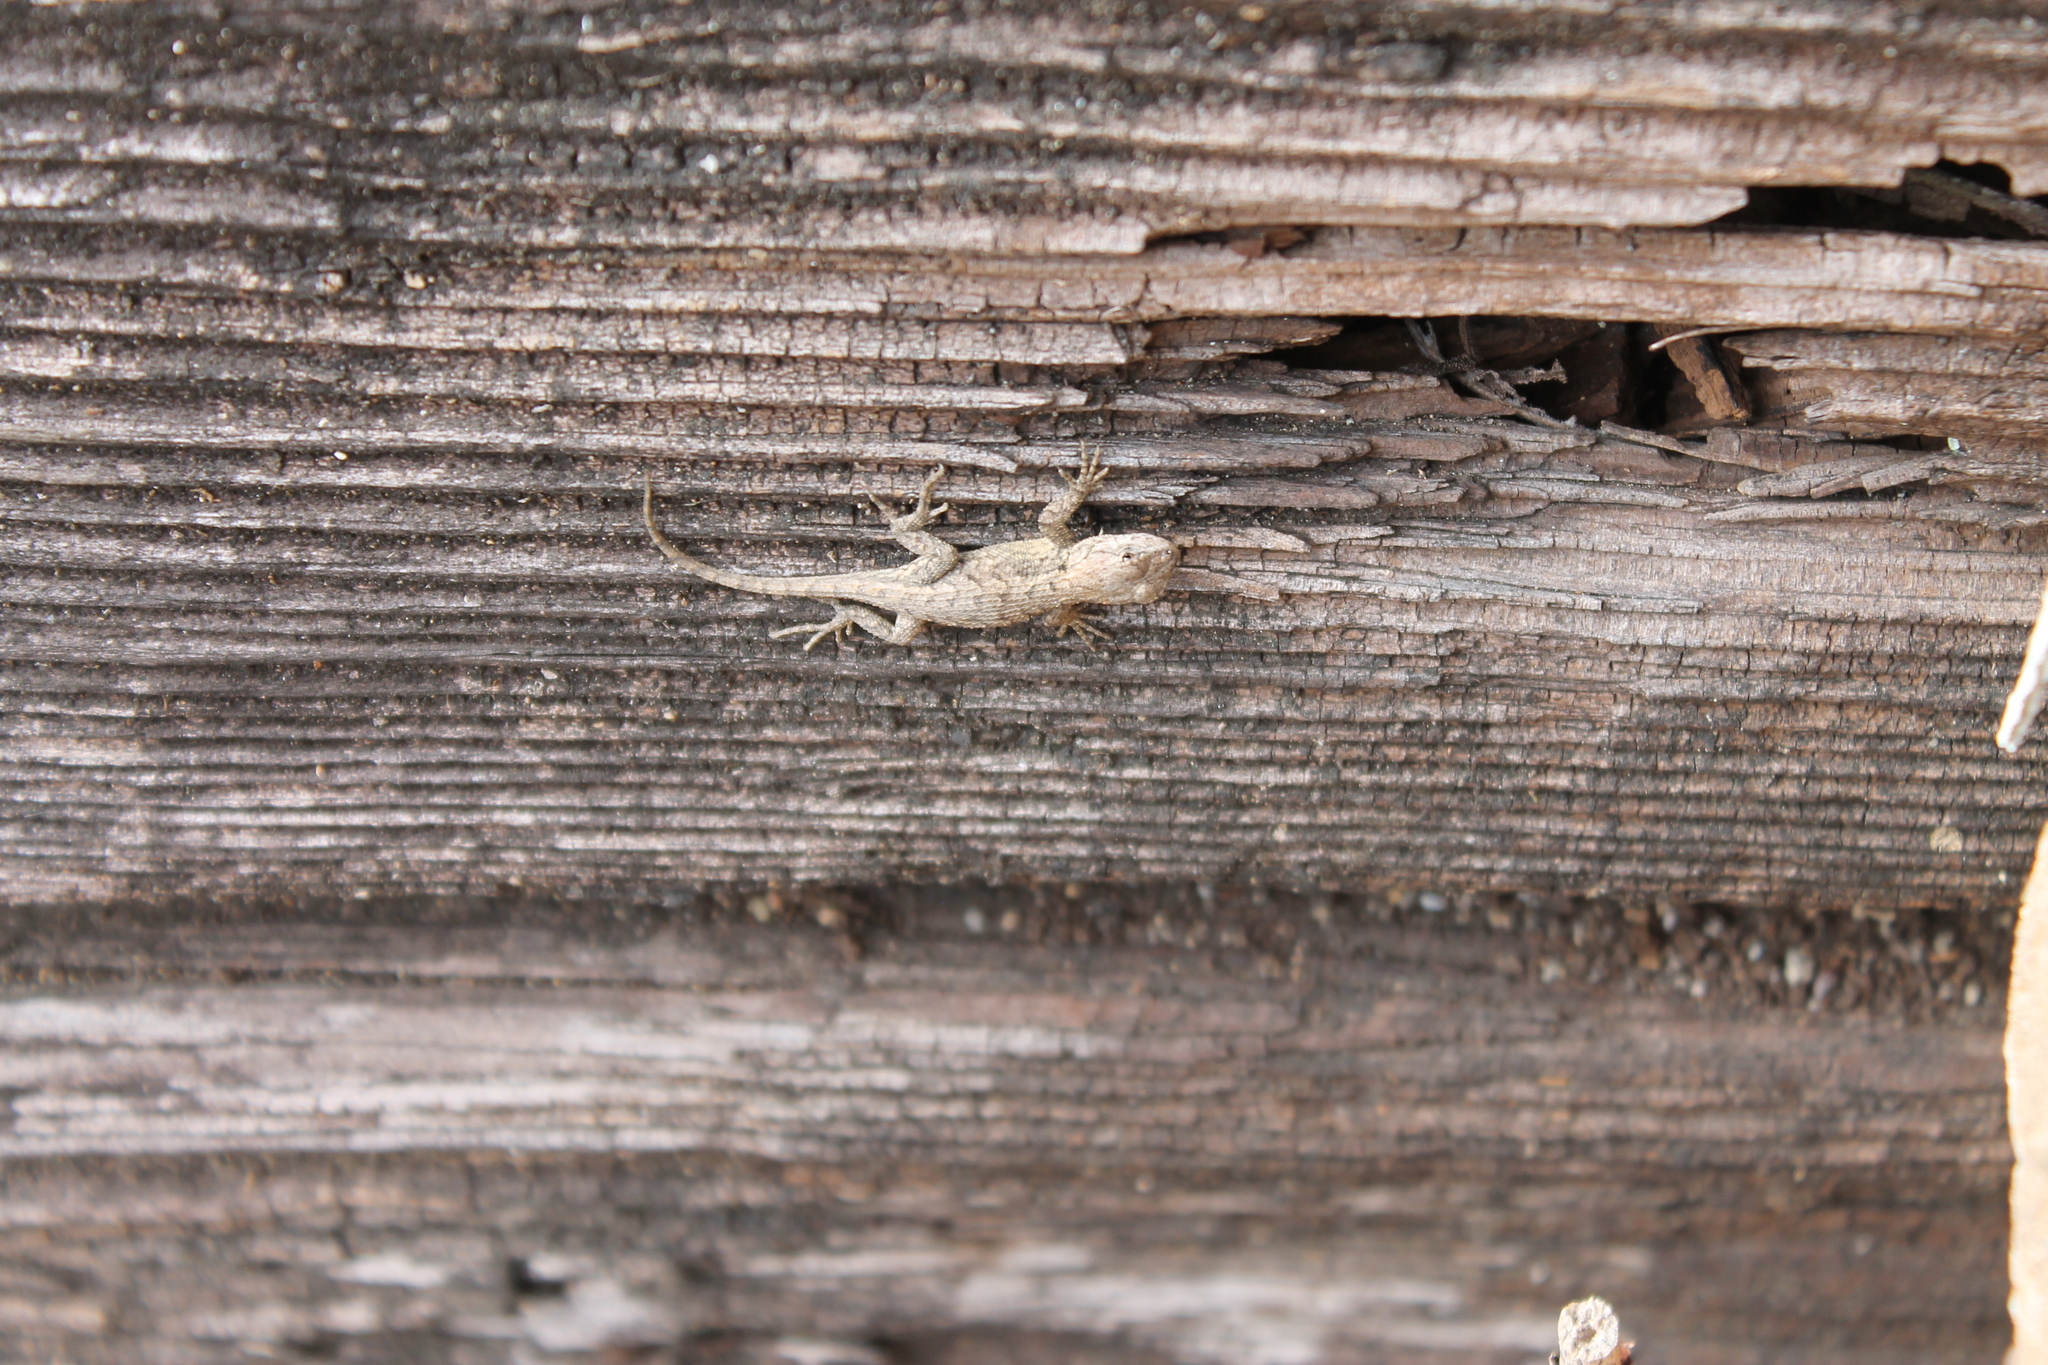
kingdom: Animalia
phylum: Chordata
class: Squamata
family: Phrynosomatidae
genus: Sceloporus
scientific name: Sceloporus undulatus
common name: Eastern fence lizard
